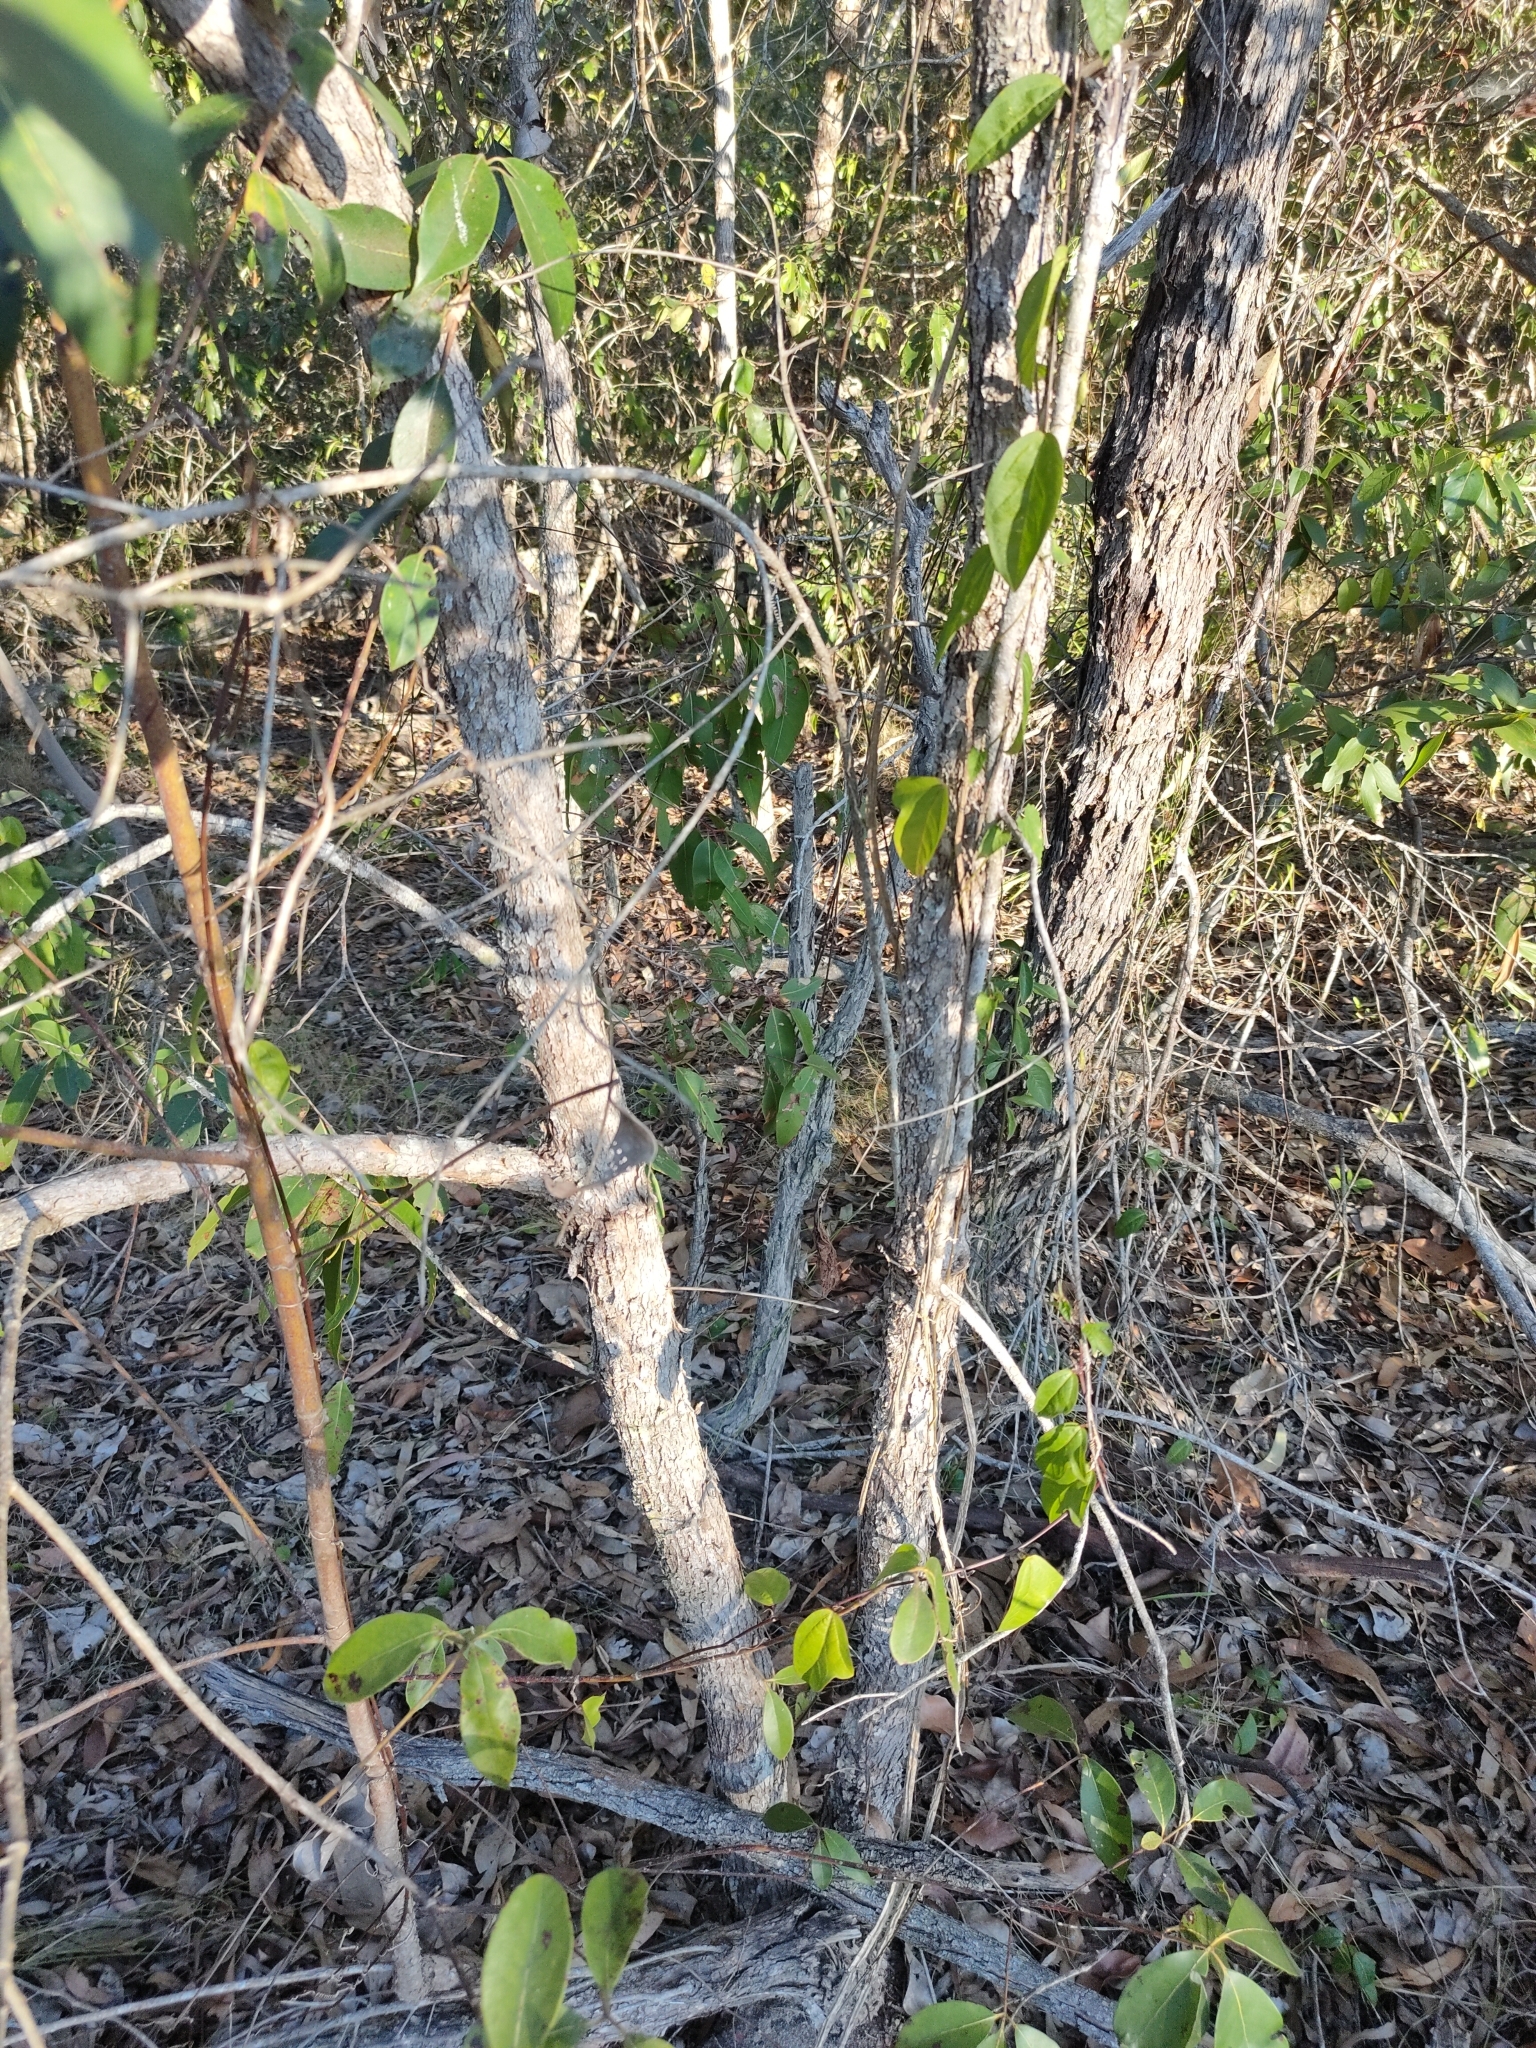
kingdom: Plantae
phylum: Tracheophyta
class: Magnoliopsida
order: Myrtales
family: Myrtaceae
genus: Lophostemon
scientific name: Lophostemon confertus
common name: Brisbane box
